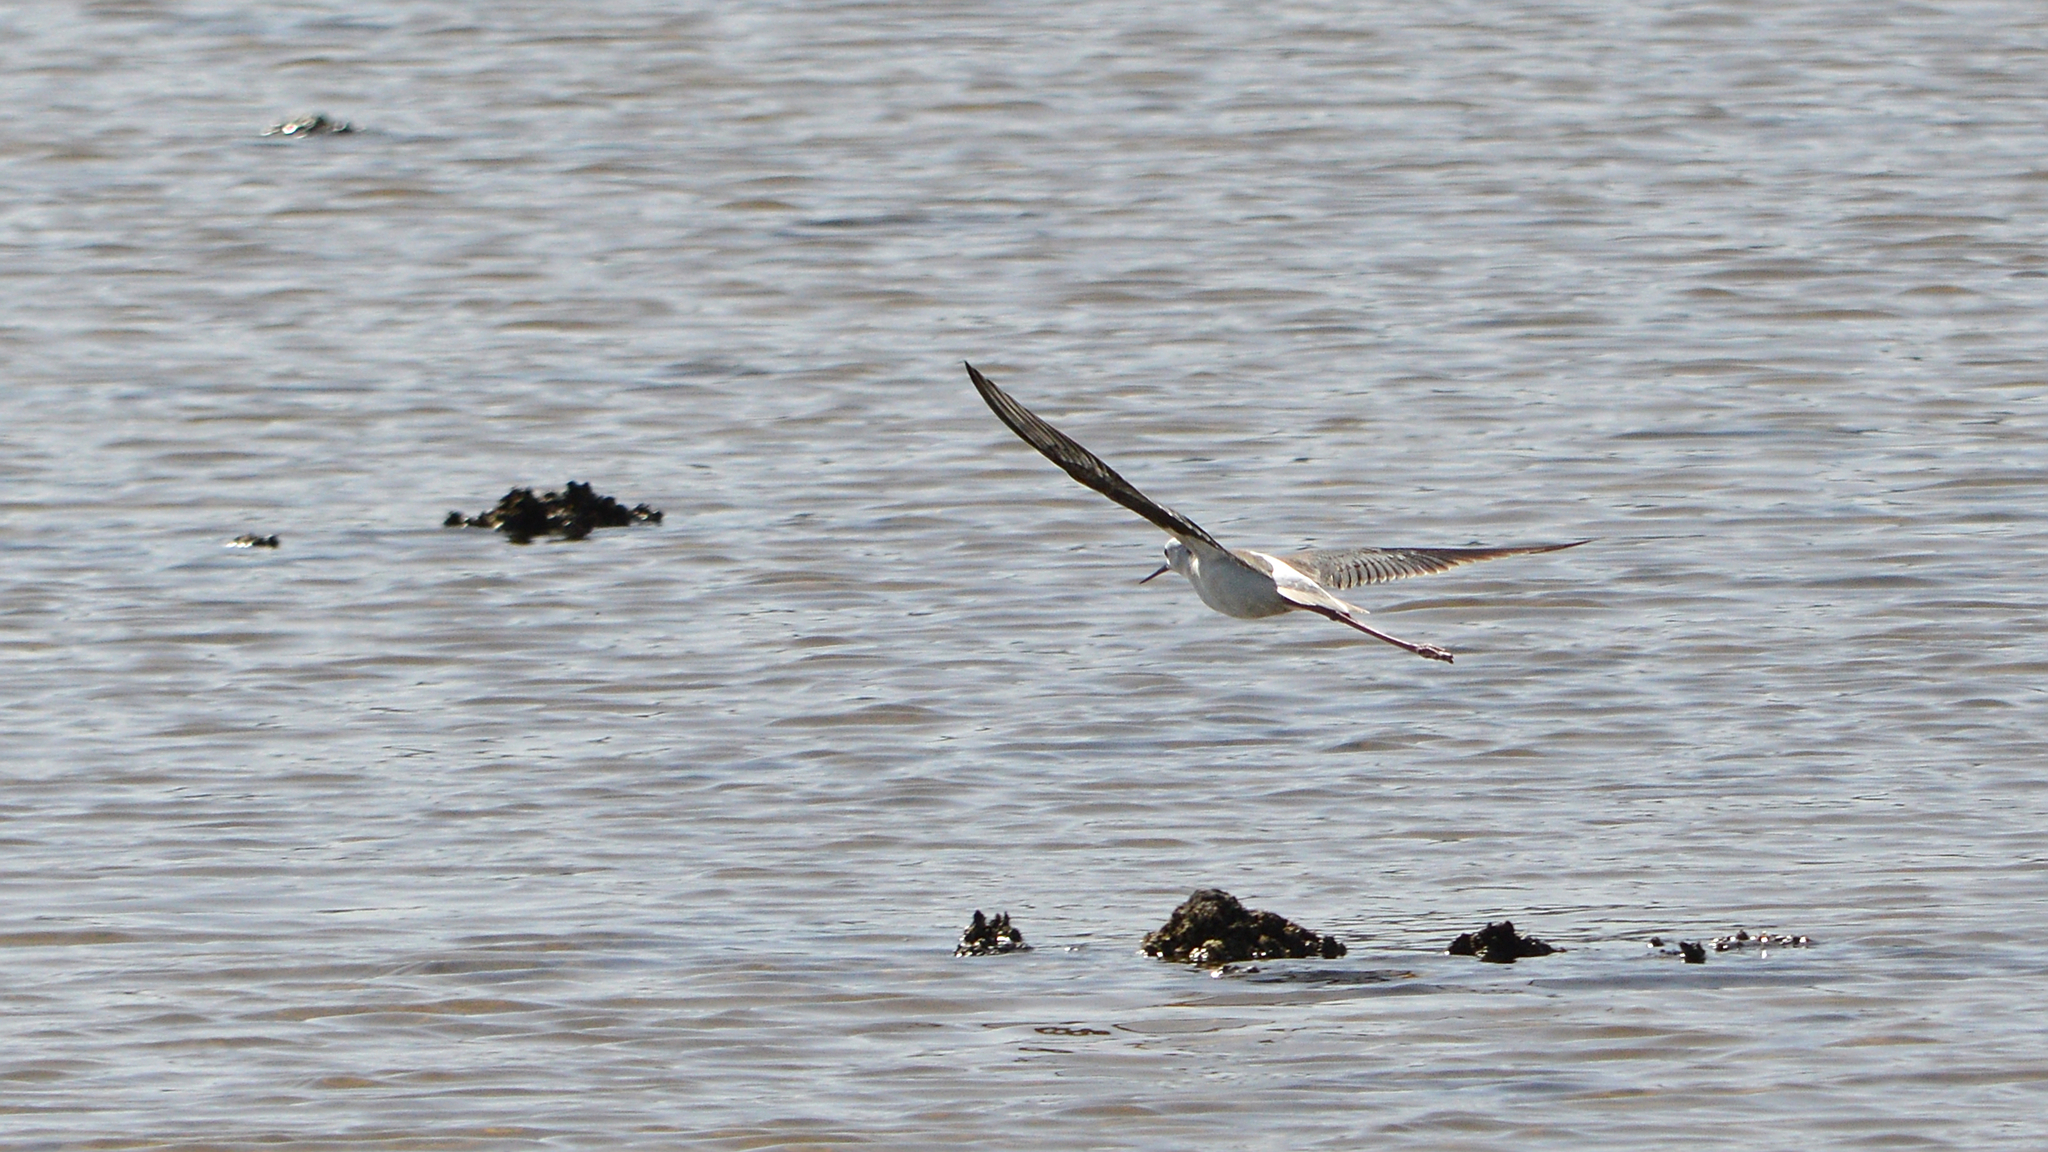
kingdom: Animalia
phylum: Chordata
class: Aves
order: Charadriiformes
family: Recurvirostridae
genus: Himantopus
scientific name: Himantopus himantopus
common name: Black-winged stilt
